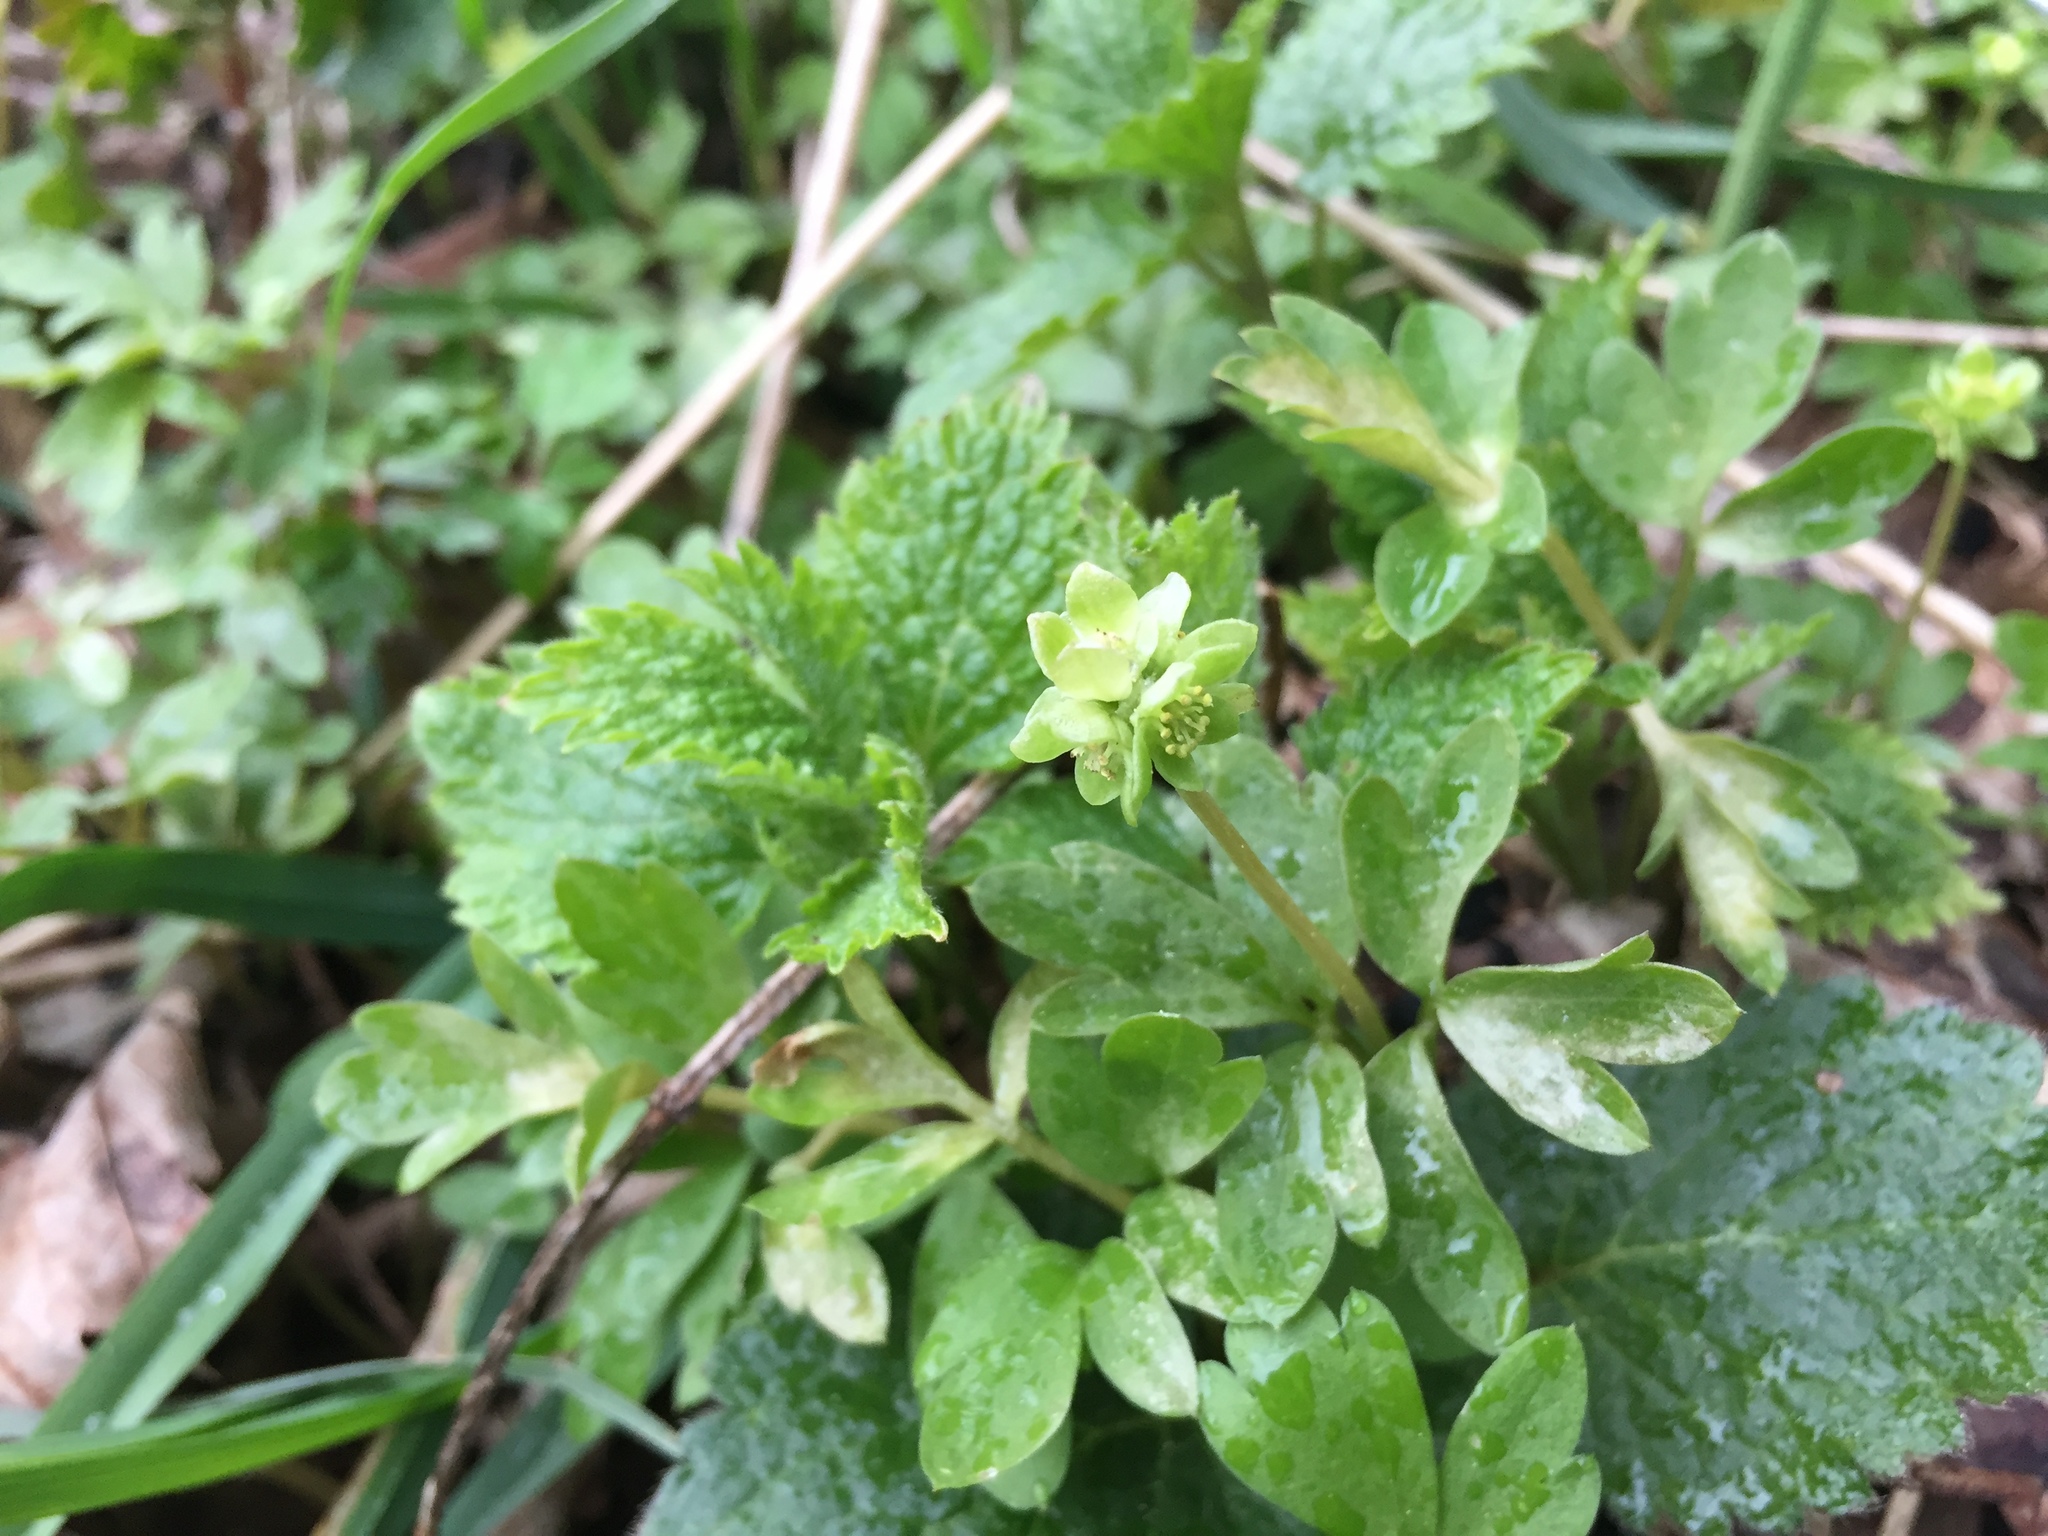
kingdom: Plantae
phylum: Tracheophyta
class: Magnoliopsida
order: Dipsacales
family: Viburnaceae
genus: Adoxa
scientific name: Adoxa moschatellina
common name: Moschatel
